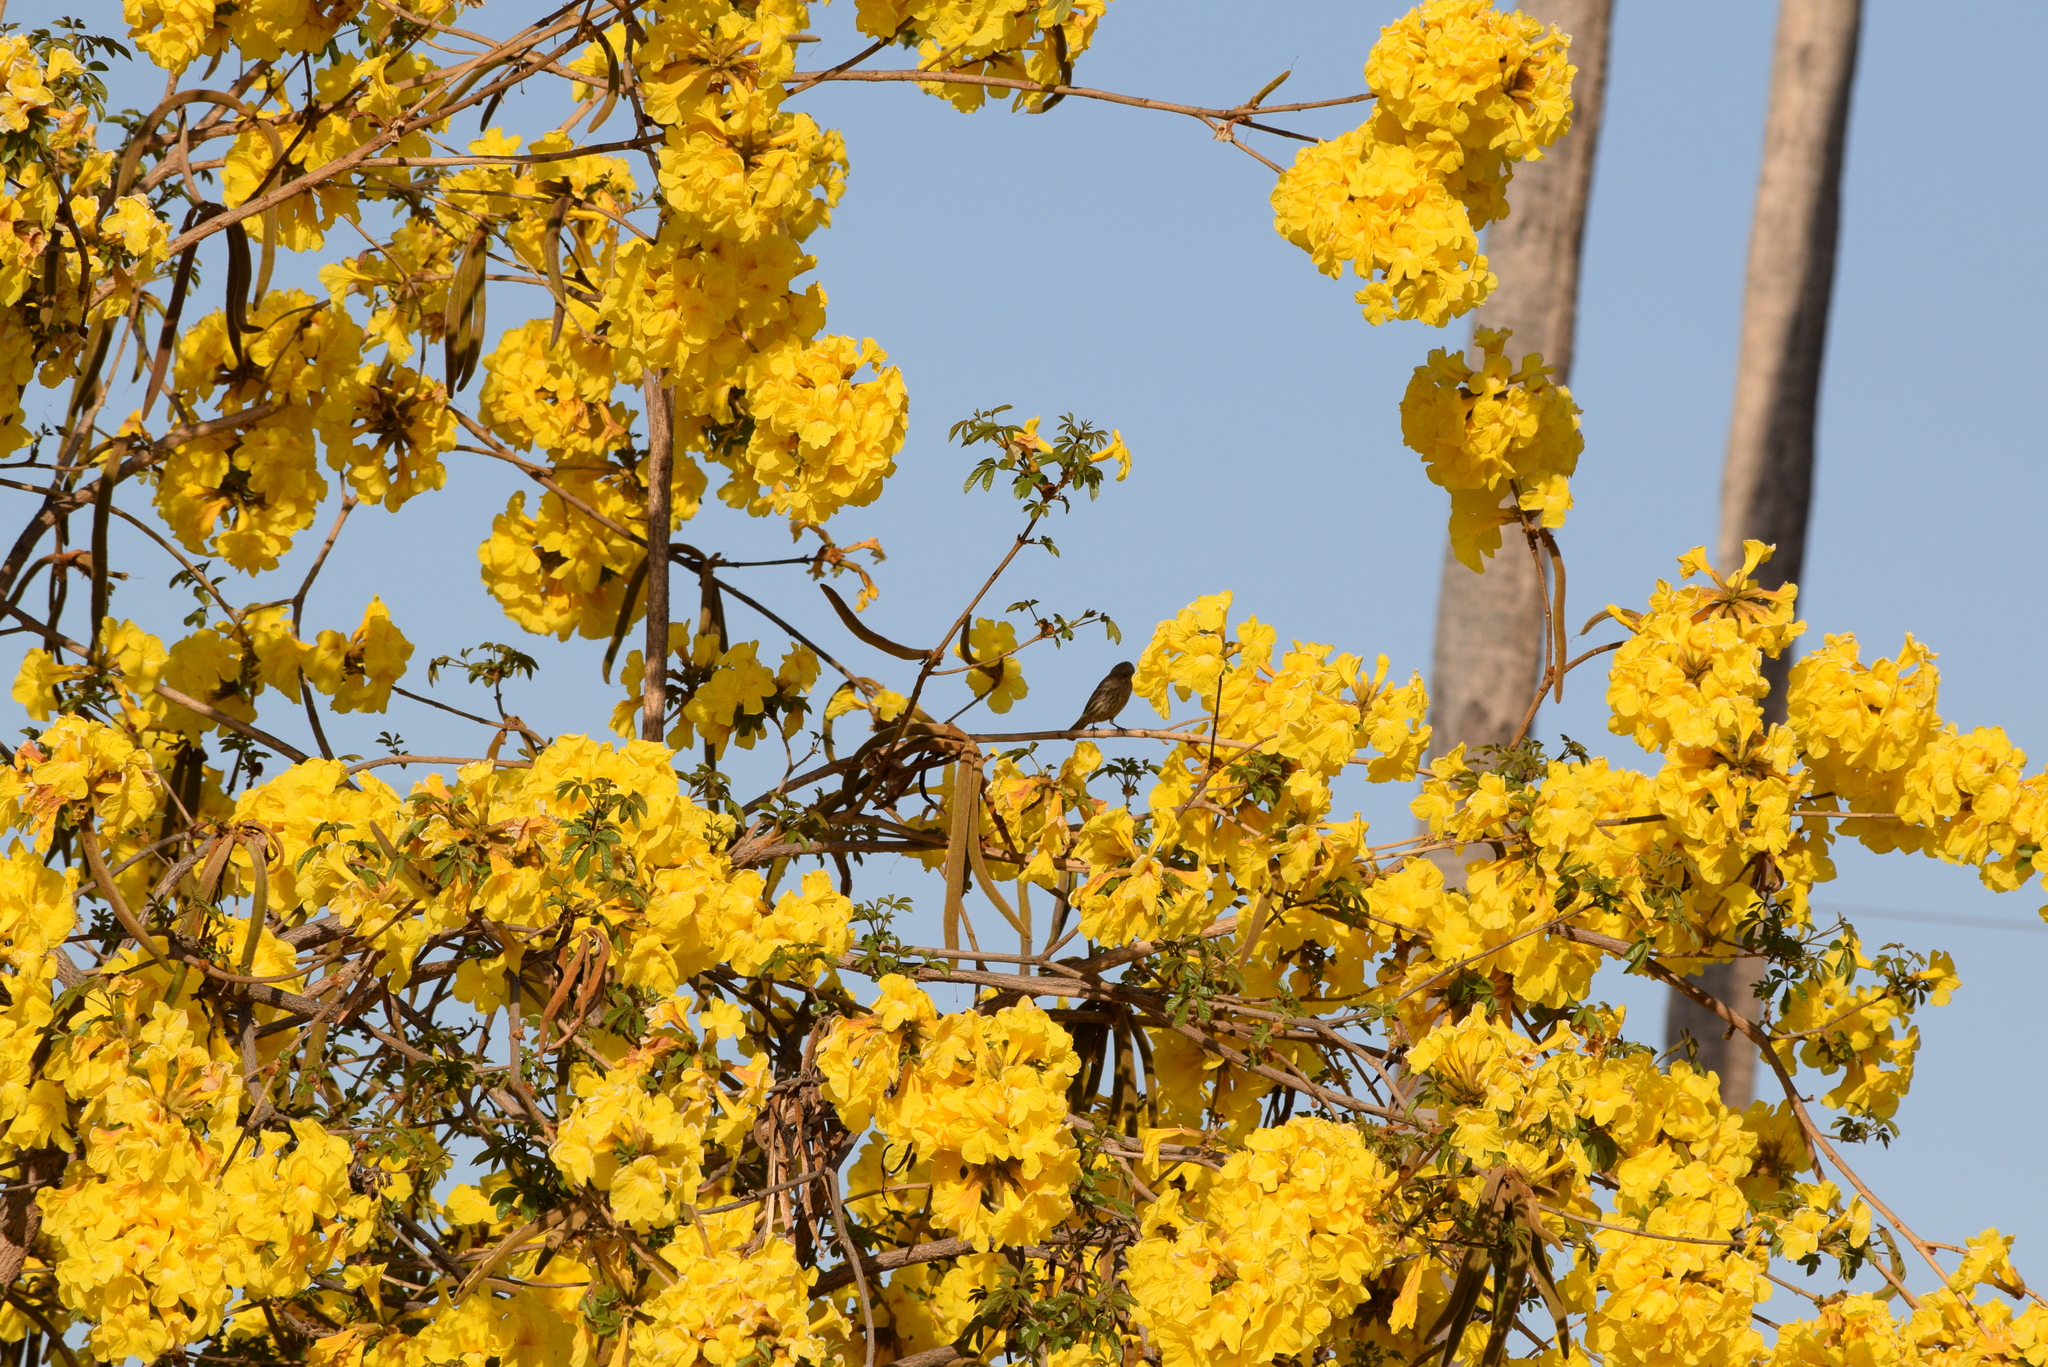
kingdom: Animalia
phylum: Chordata
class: Aves
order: Passeriformes
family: Fringillidae
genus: Haemorhous
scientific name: Haemorhous mexicanus
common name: House finch
